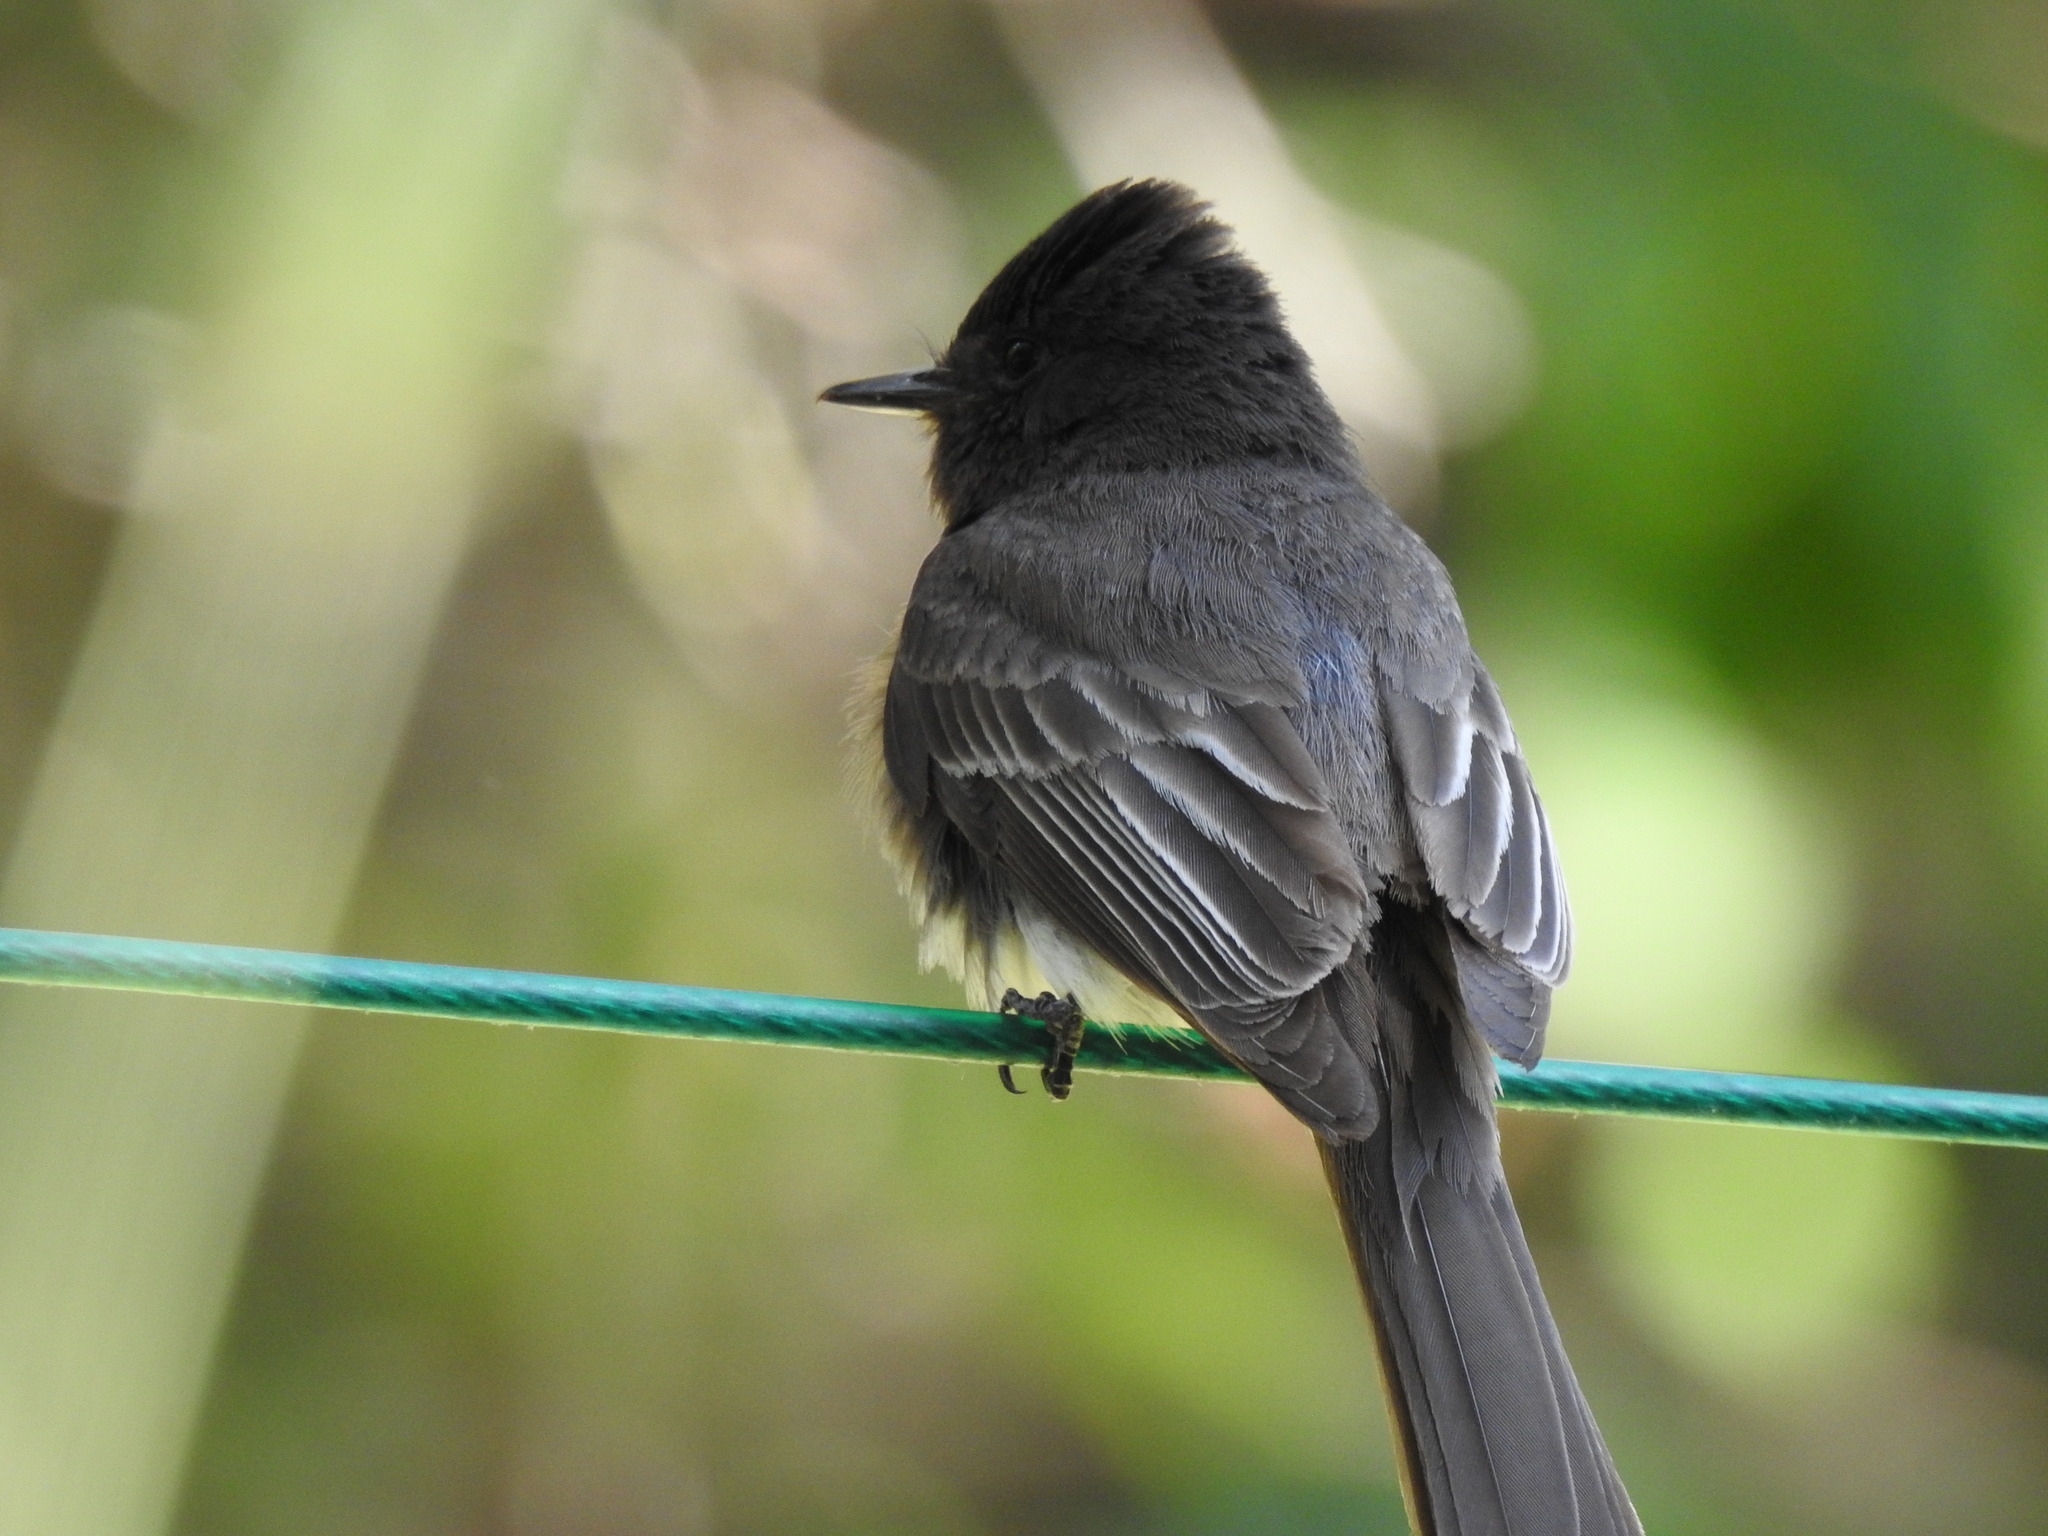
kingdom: Animalia
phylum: Chordata
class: Aves
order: Passeriformes
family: Tyrannidae
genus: Sayornis
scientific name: Sayornis nigricans
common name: Black phoebe
